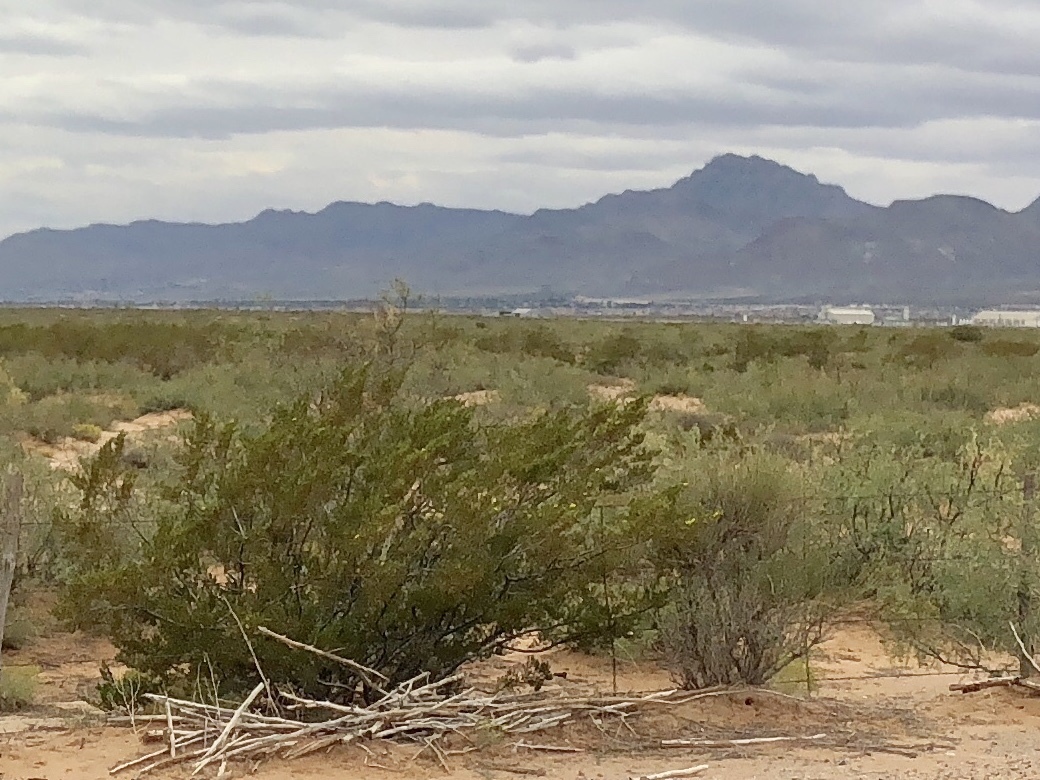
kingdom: Plantae
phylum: Tracheophyta
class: Magnoliopsida
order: Zygophyllales
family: Zygophyllaceae
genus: Larrea
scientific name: Larrea tridentata
